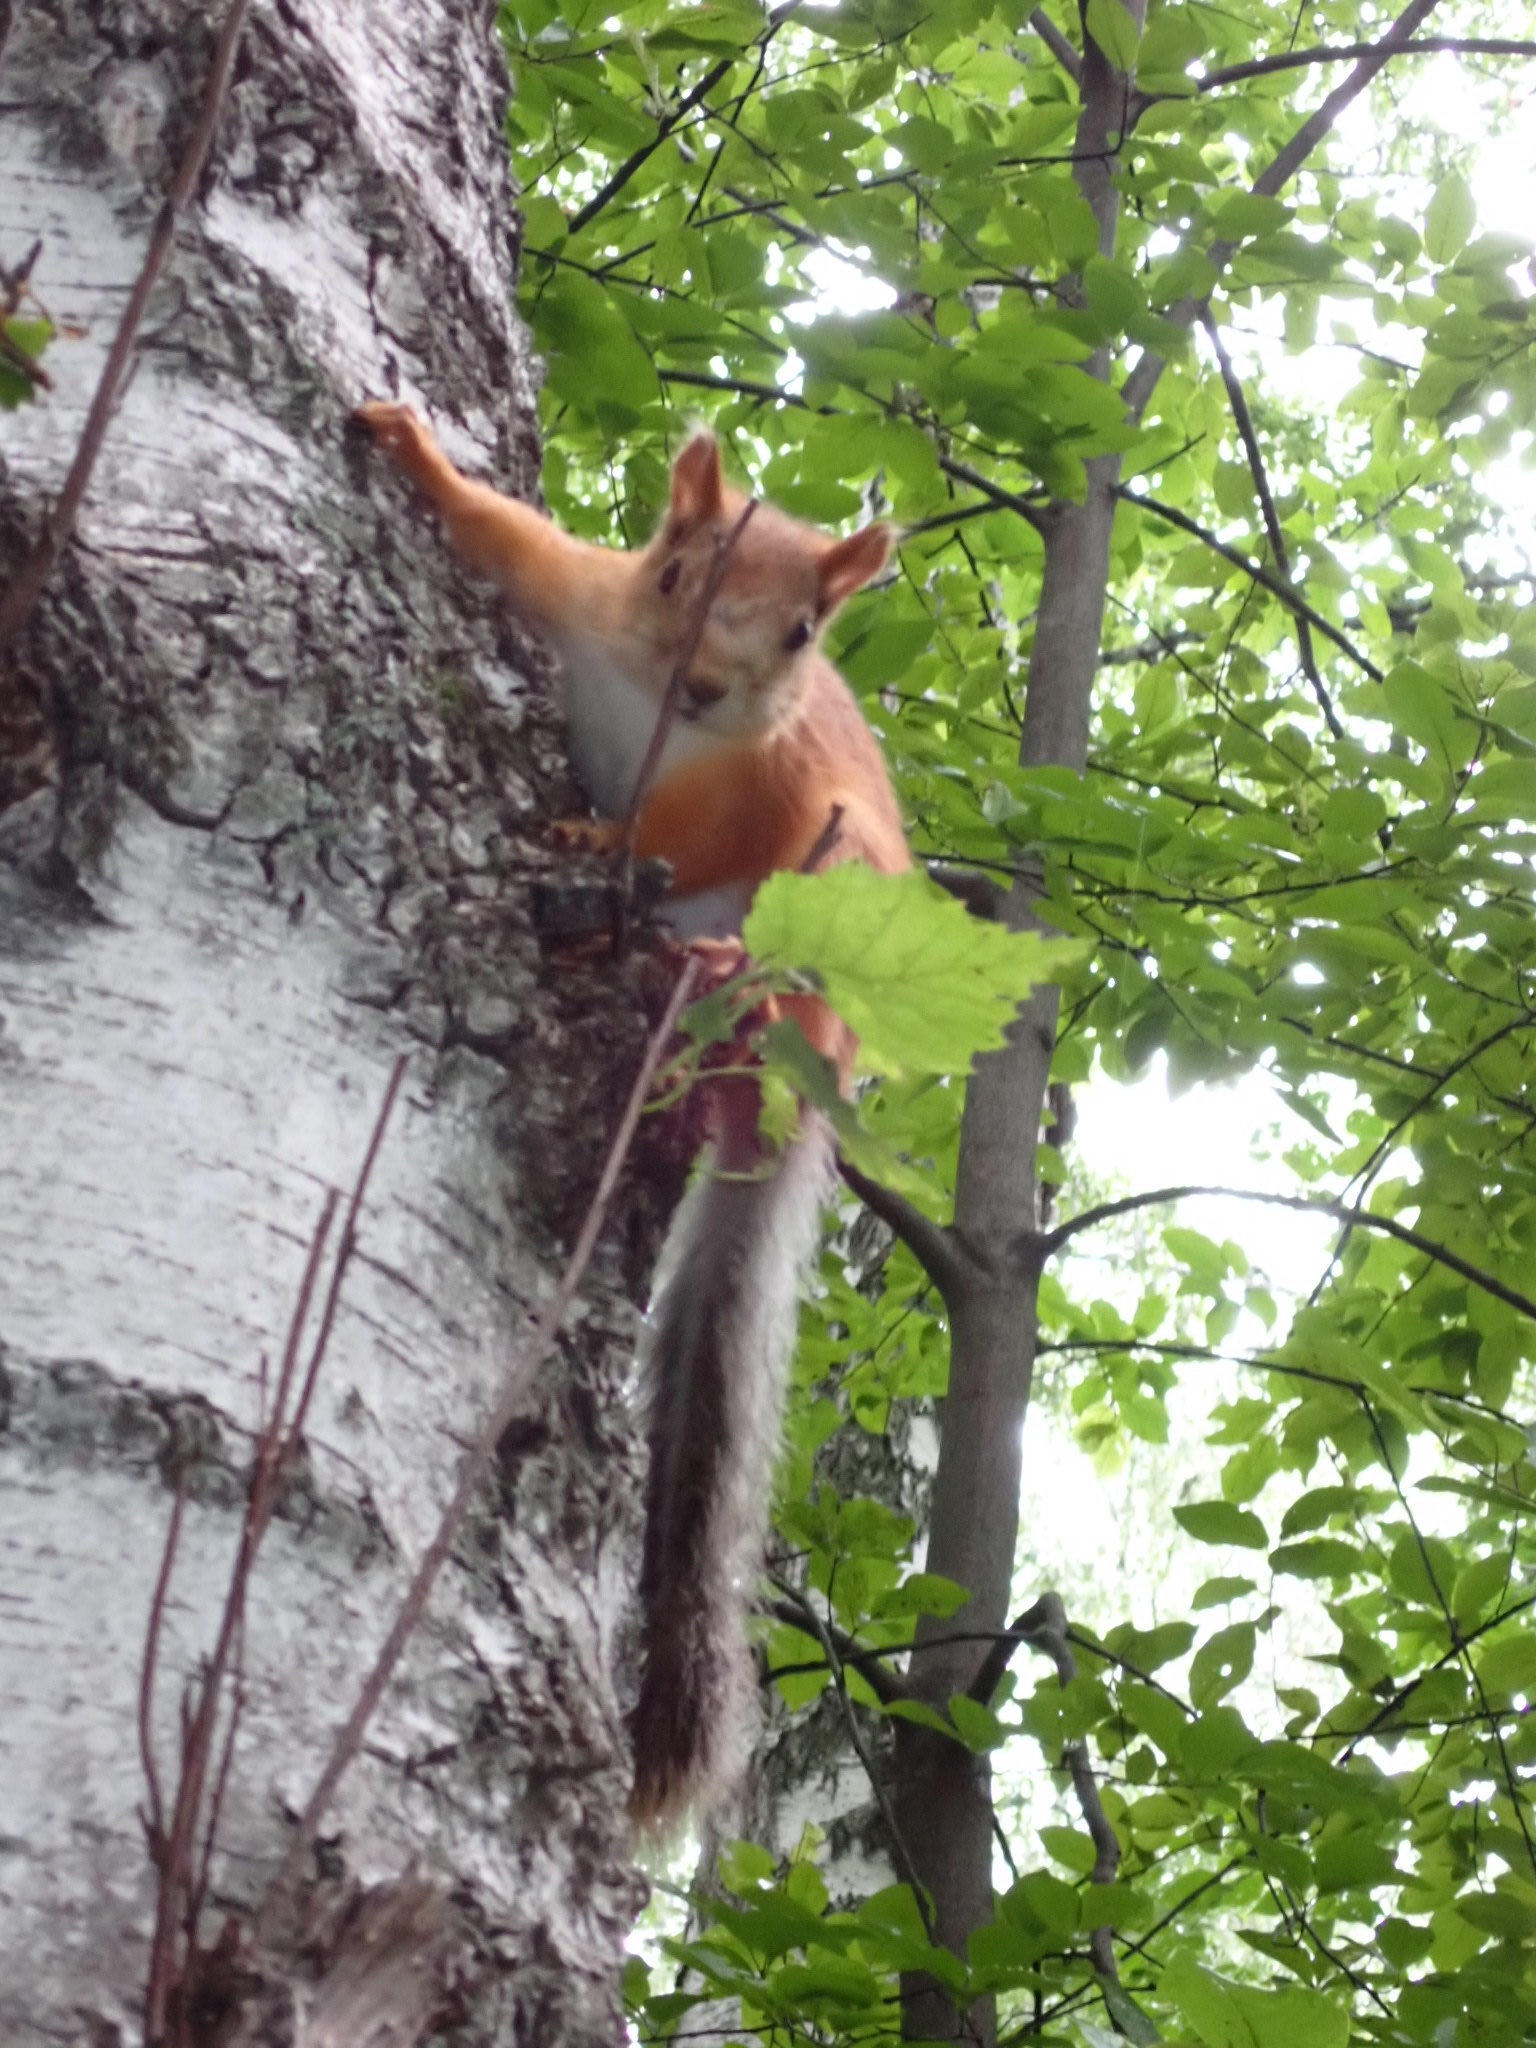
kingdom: Animalia
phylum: Chordata
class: Mammalia
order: Rodentia
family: Sciuridae
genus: Sciurus
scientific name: Sciurus vulgaris
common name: Eurasian red squirrel
